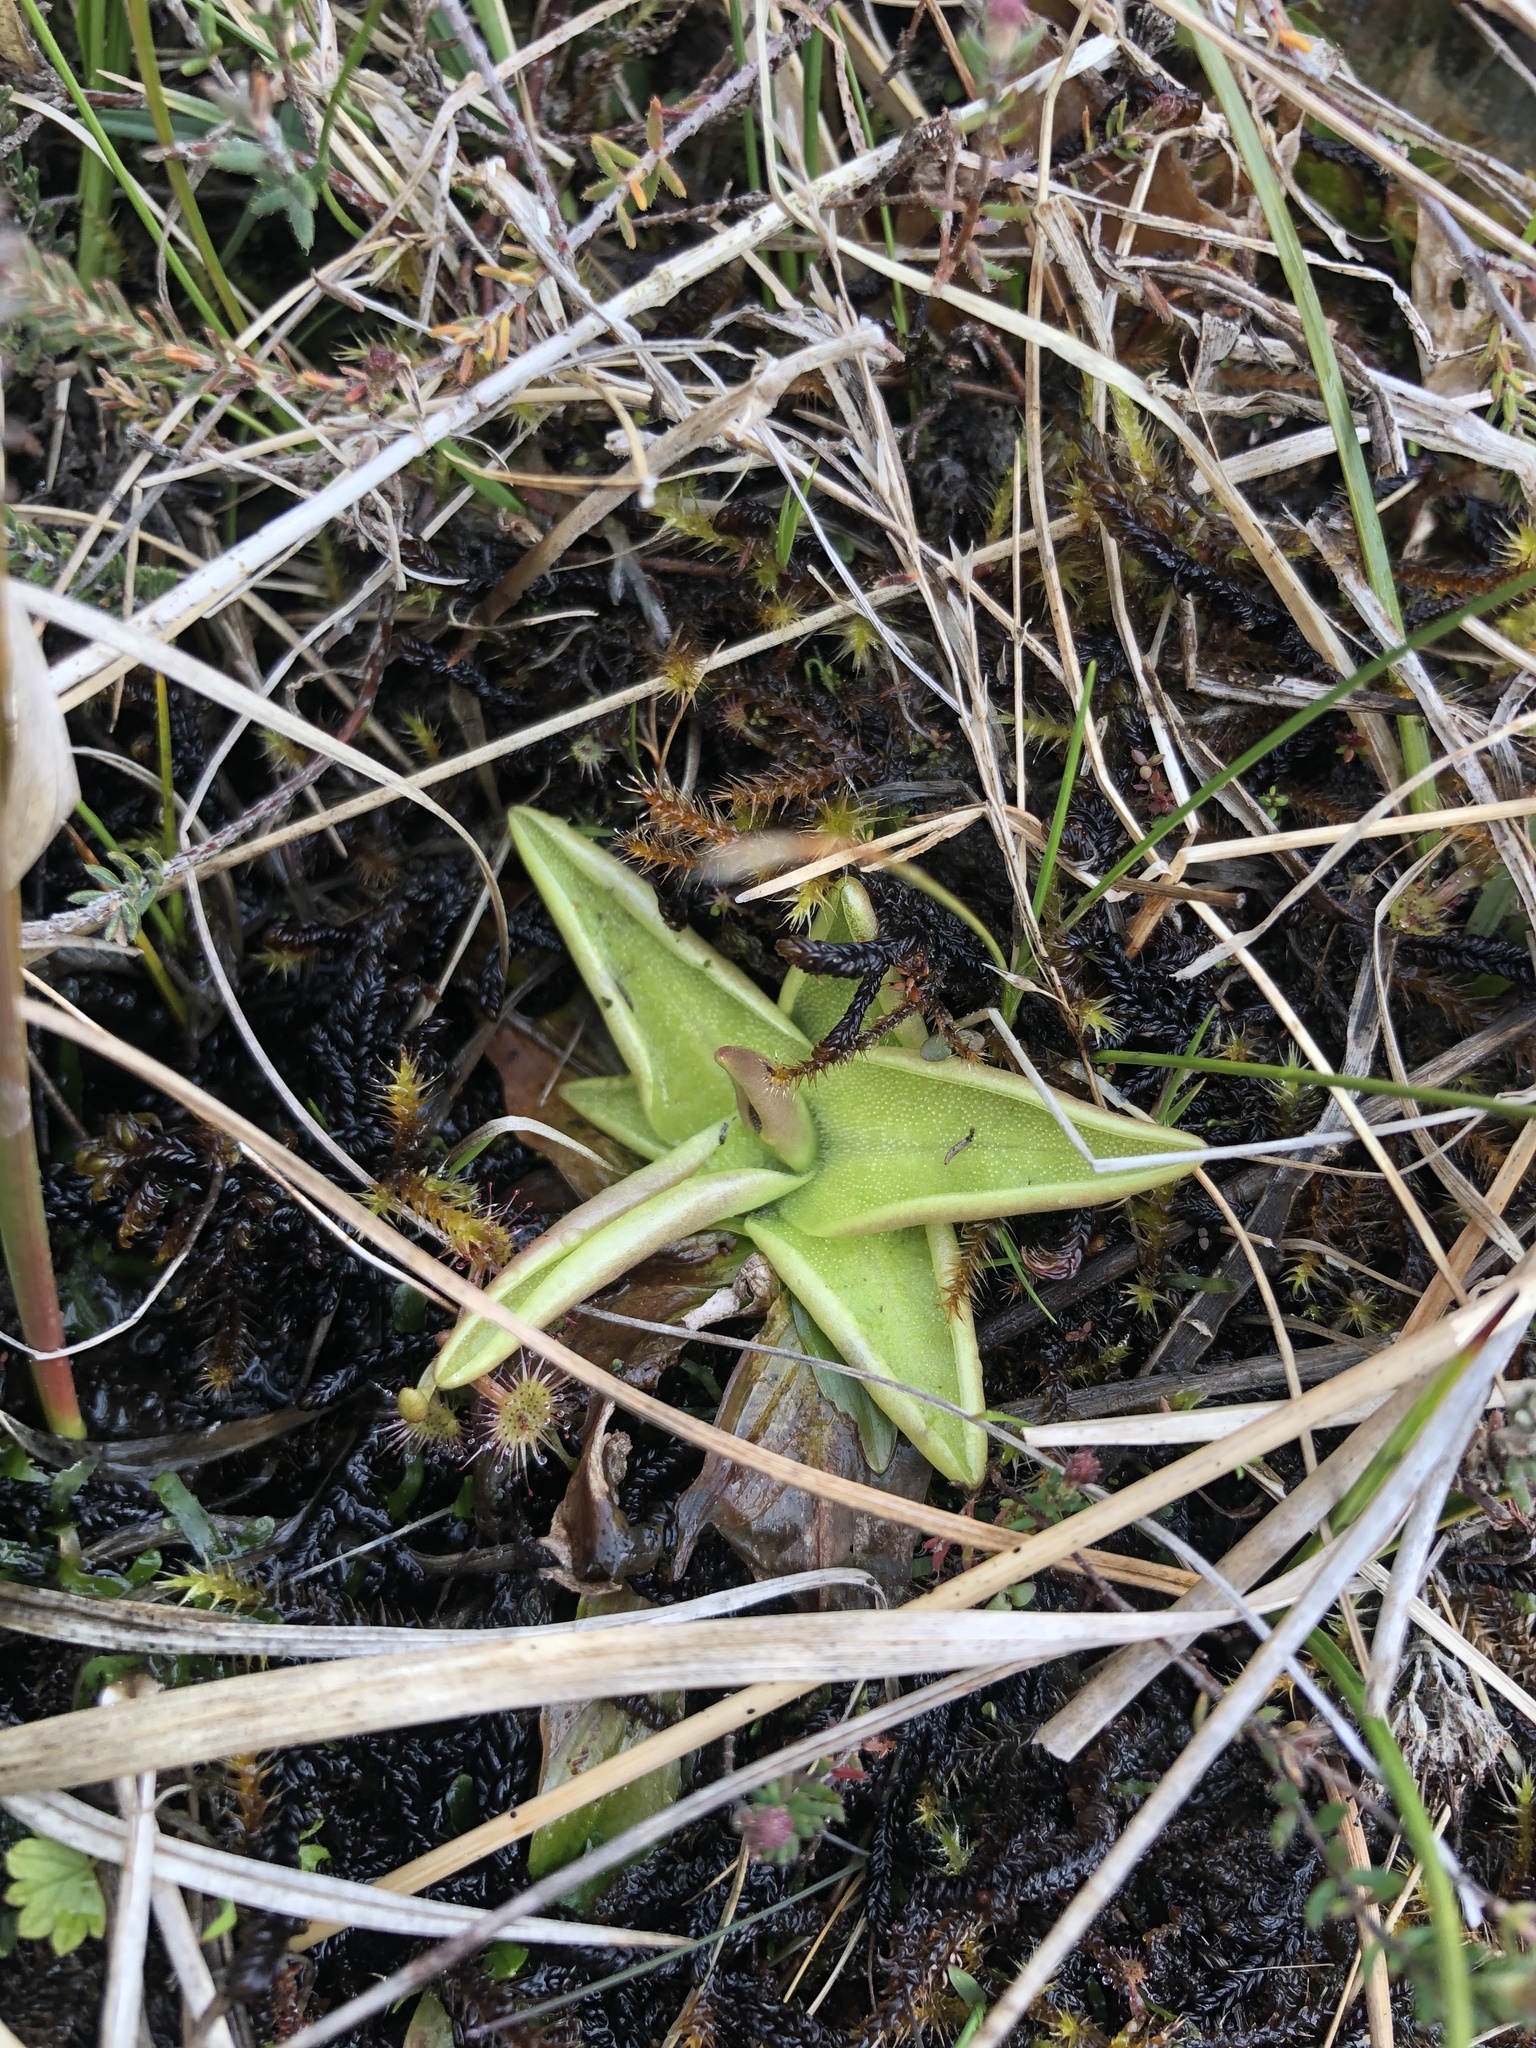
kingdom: Plantae
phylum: Tracheophyta
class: Magnoliopsida
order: Lamiales
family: Lentibulariaceae
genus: Pinguicula
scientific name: Pinguicula vulgaris
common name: Common butterwort
